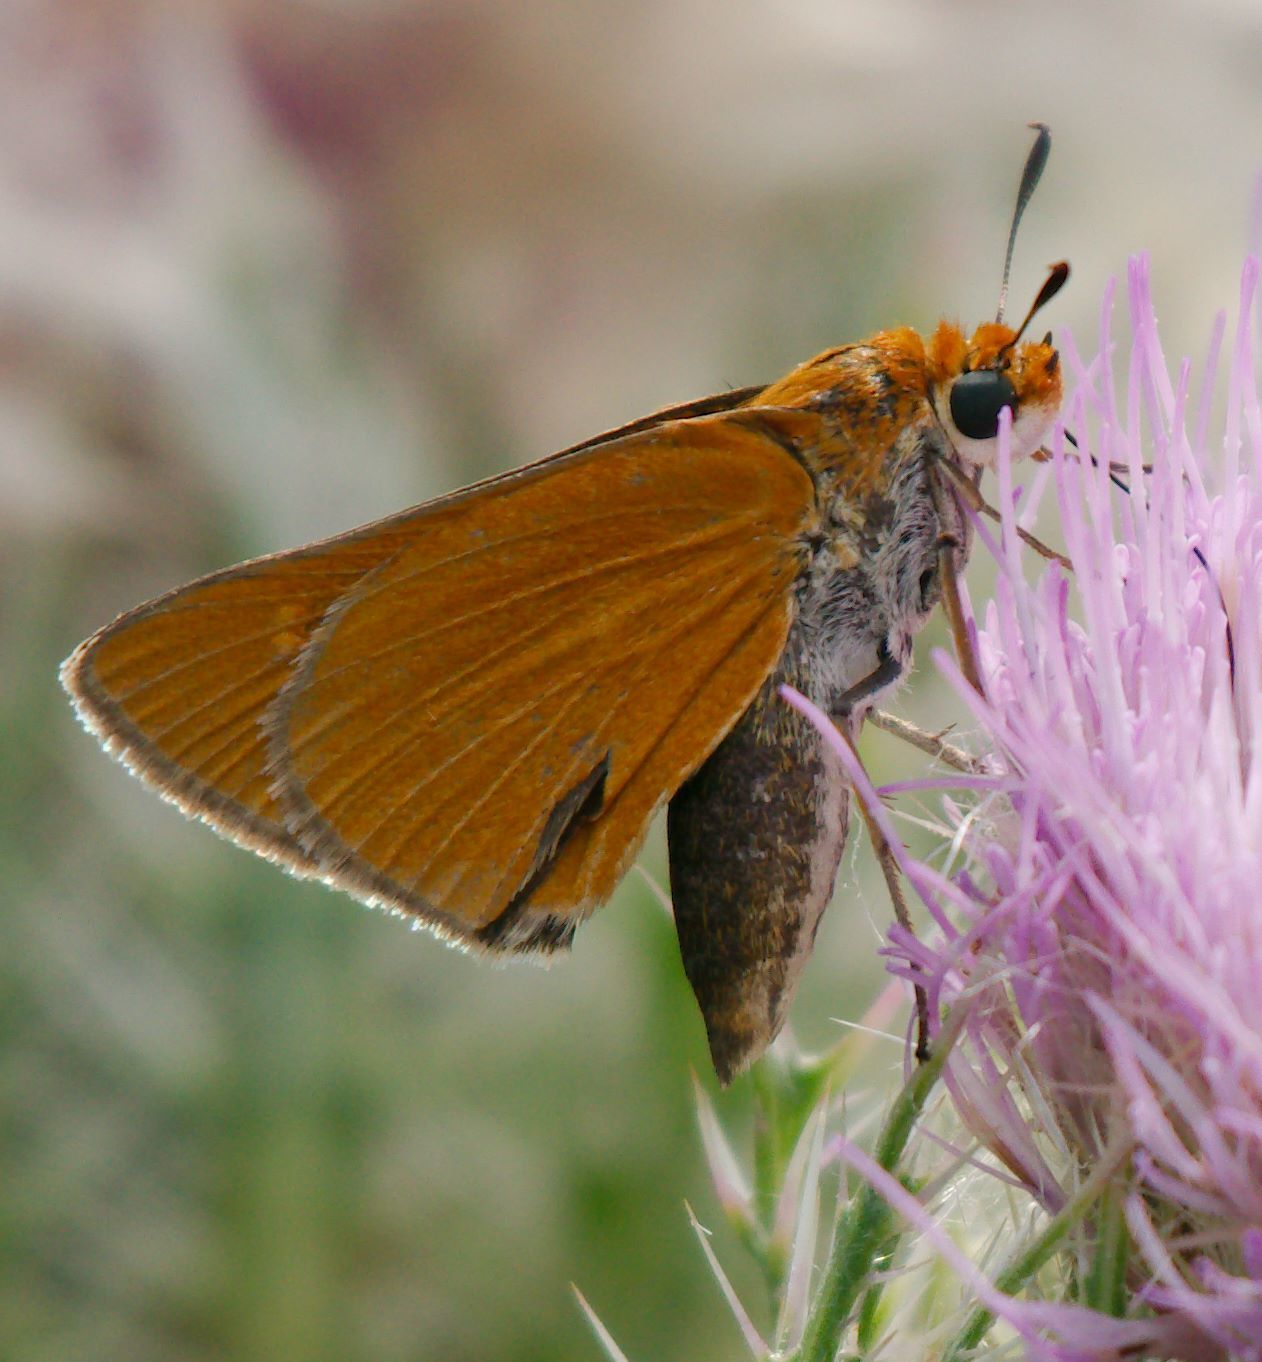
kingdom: Animalia
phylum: Arthropoda
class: Insecta
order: Lepidoptera
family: Hesperiidae
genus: Euphyes
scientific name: Euphyes arpa
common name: Palmetto skipper
